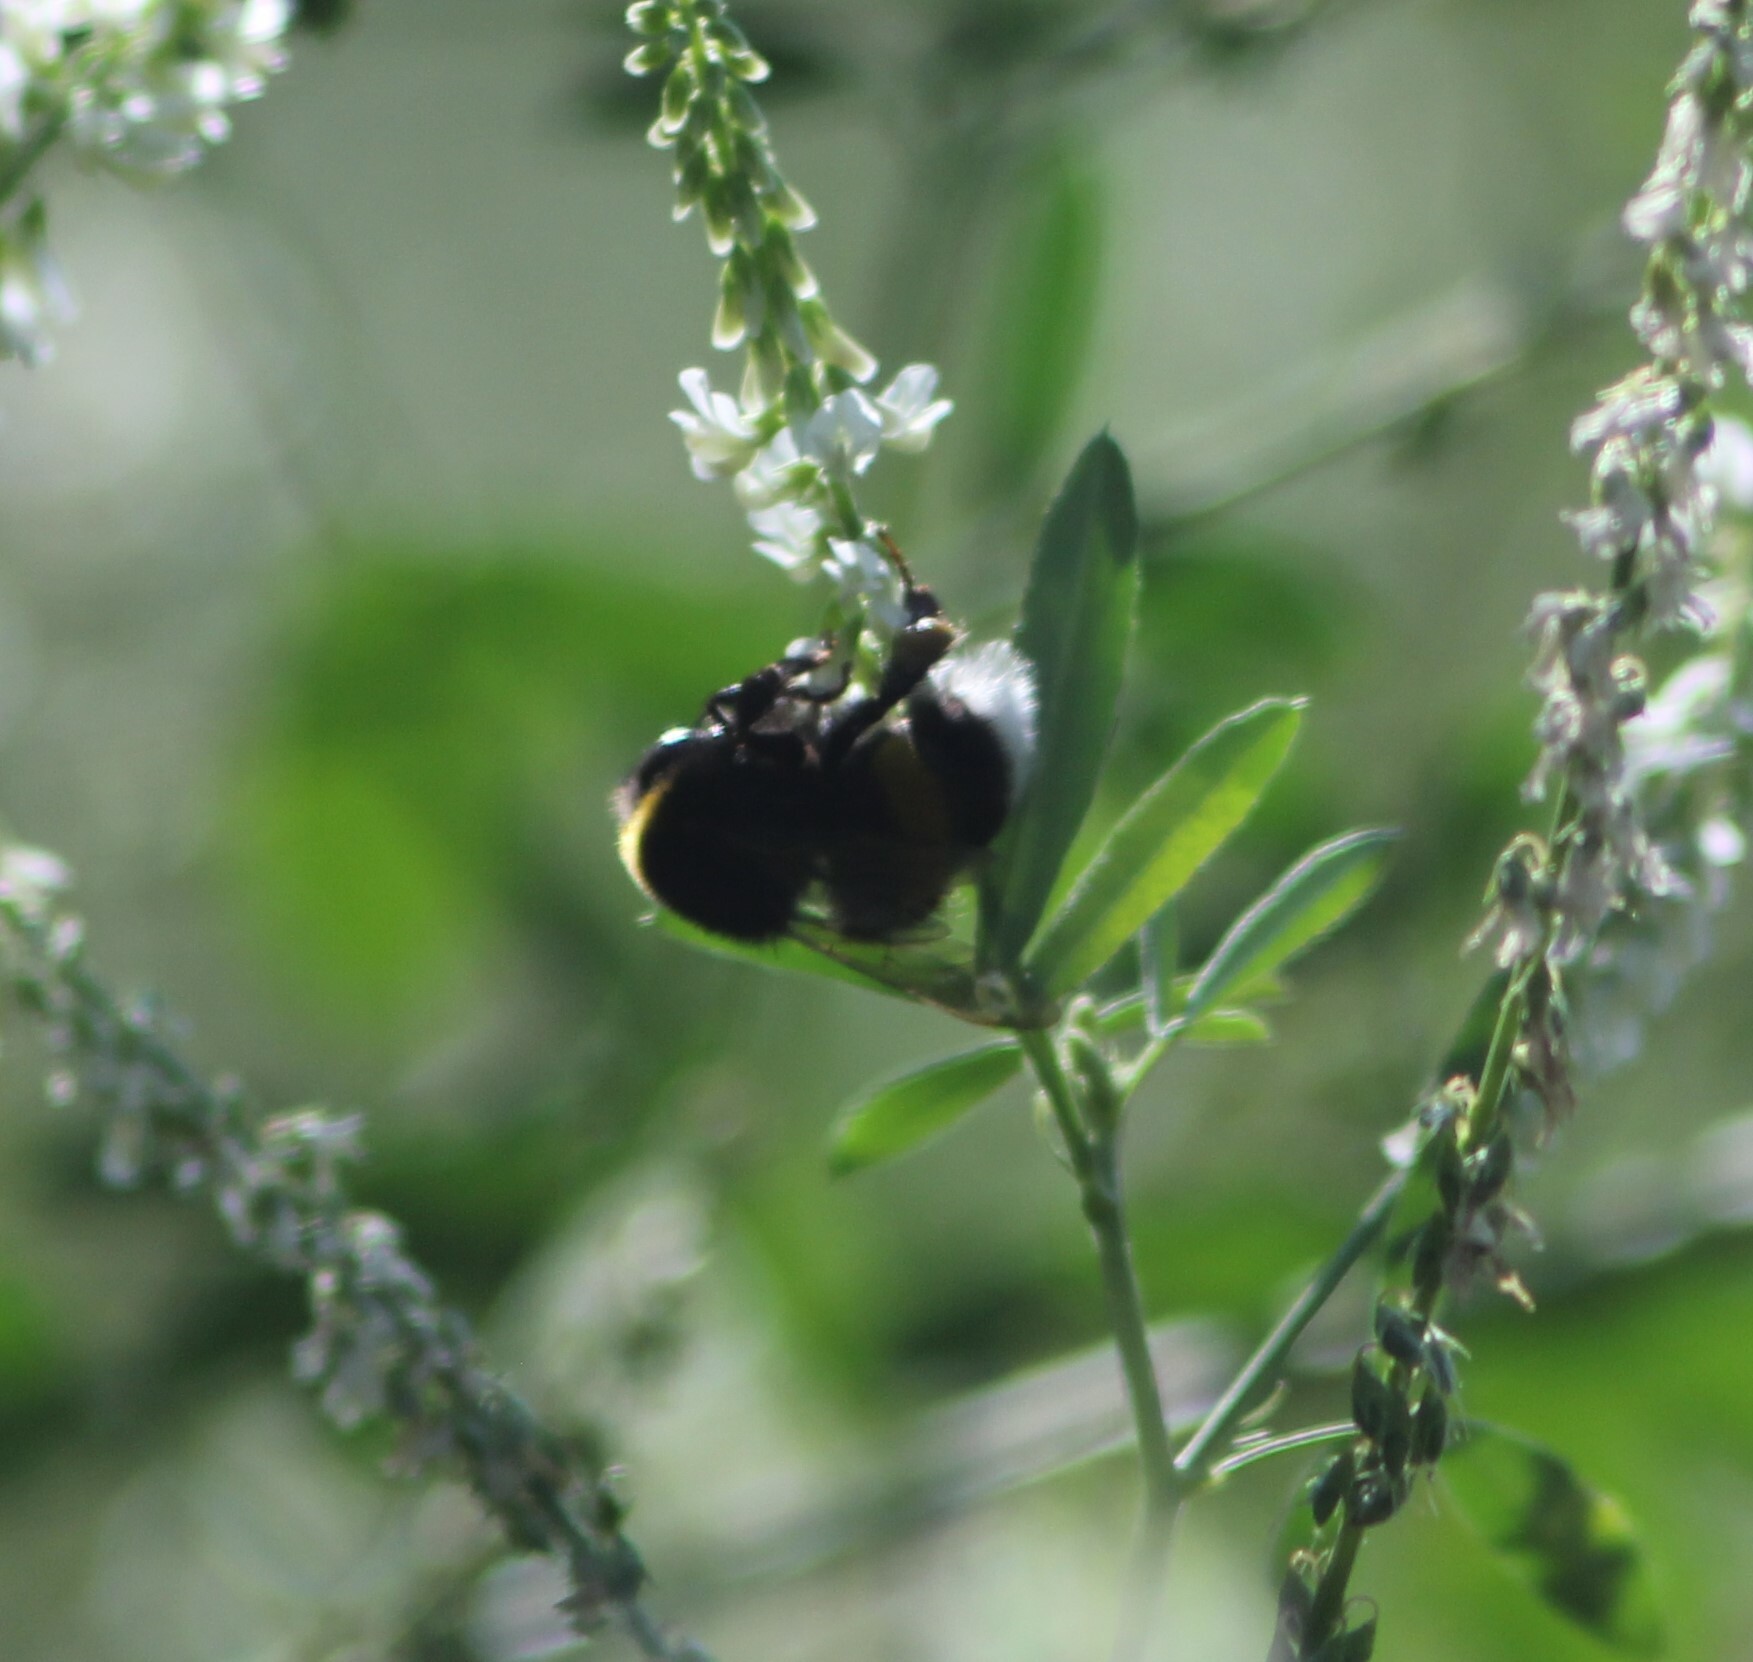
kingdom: Animalia
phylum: Arthropoda
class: Insecta
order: Hymenoptera
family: Apidae
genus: Bombus
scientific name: Bombus
